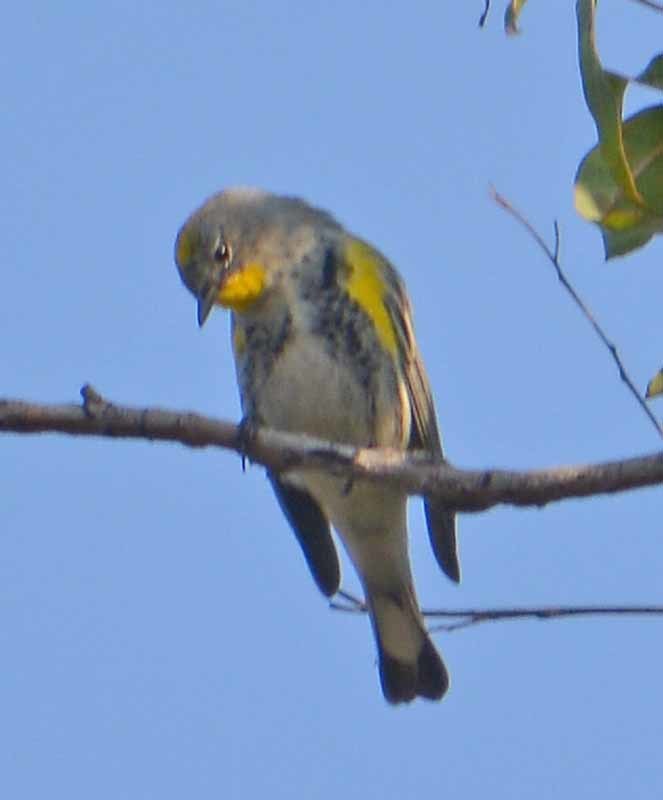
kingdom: Animalia
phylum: Chordata
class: Aves
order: Passeriformes
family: Parulidae
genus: Setophaga
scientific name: Setophaga coronata
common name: Myrtle warbler
